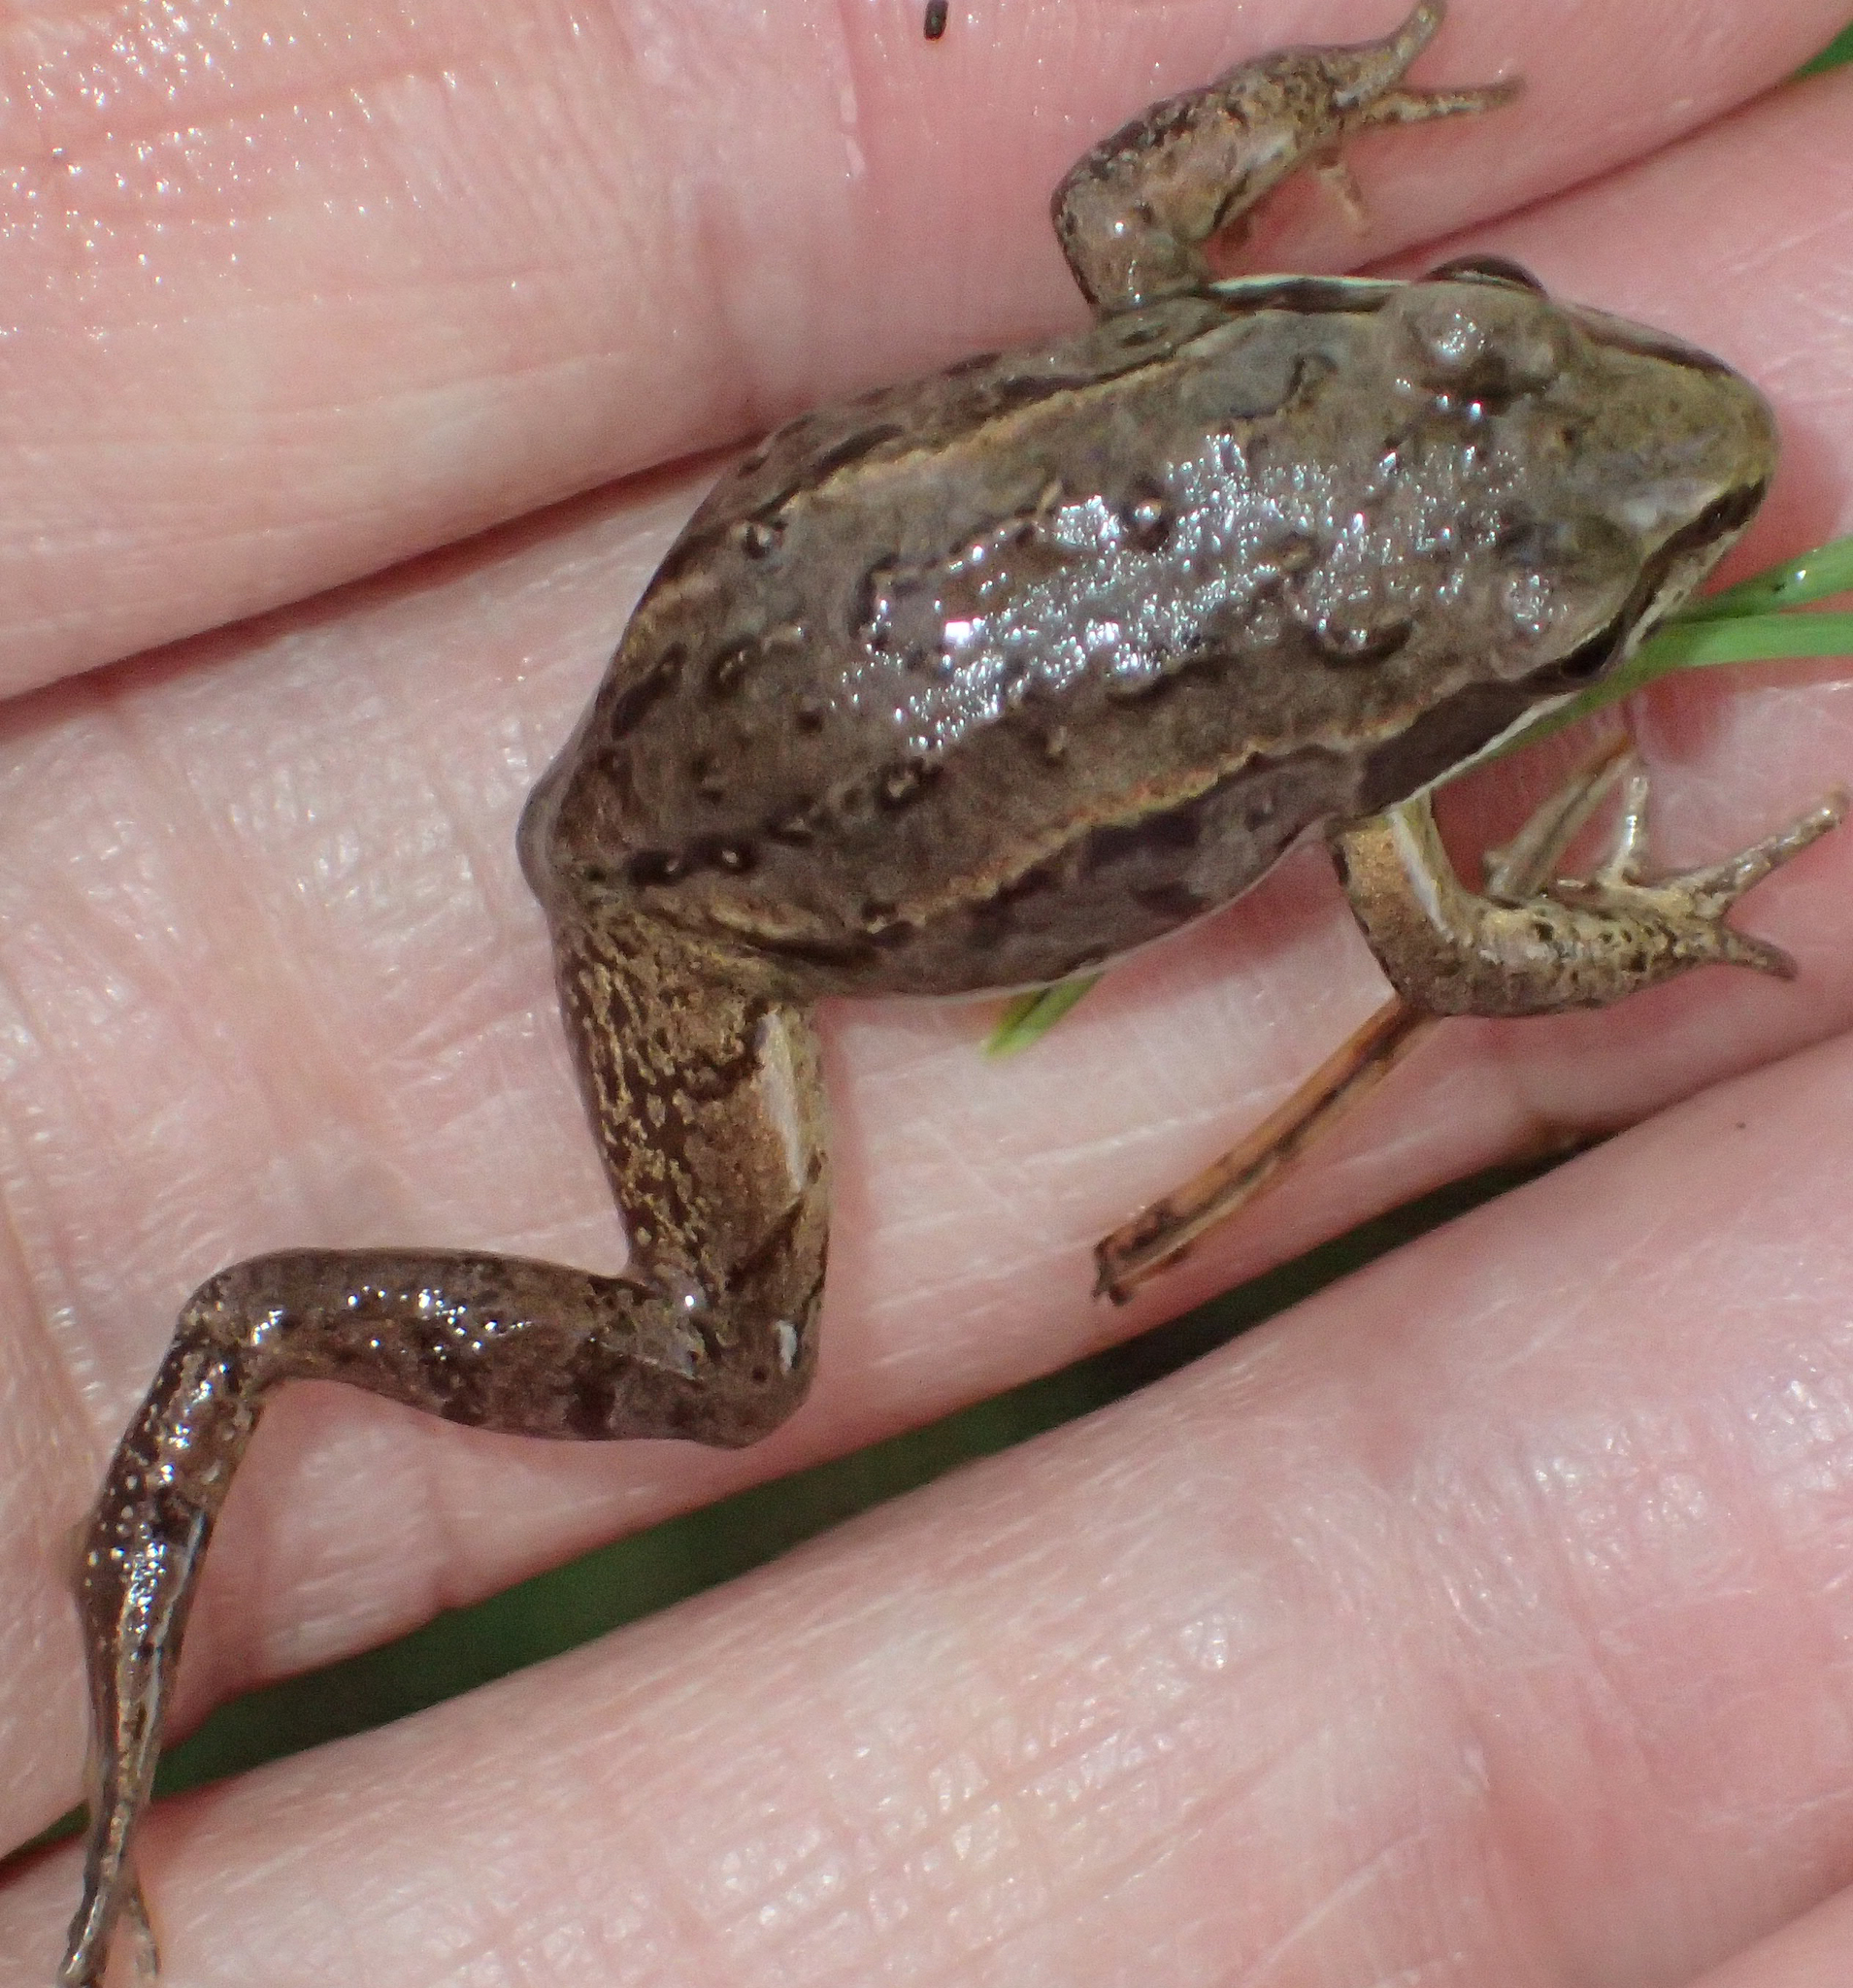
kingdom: Animalia
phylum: Chordata
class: Amphibia
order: Anura
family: Ranidae
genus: Lithobates
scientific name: Lithobates sylvaticus
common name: Wood frog
